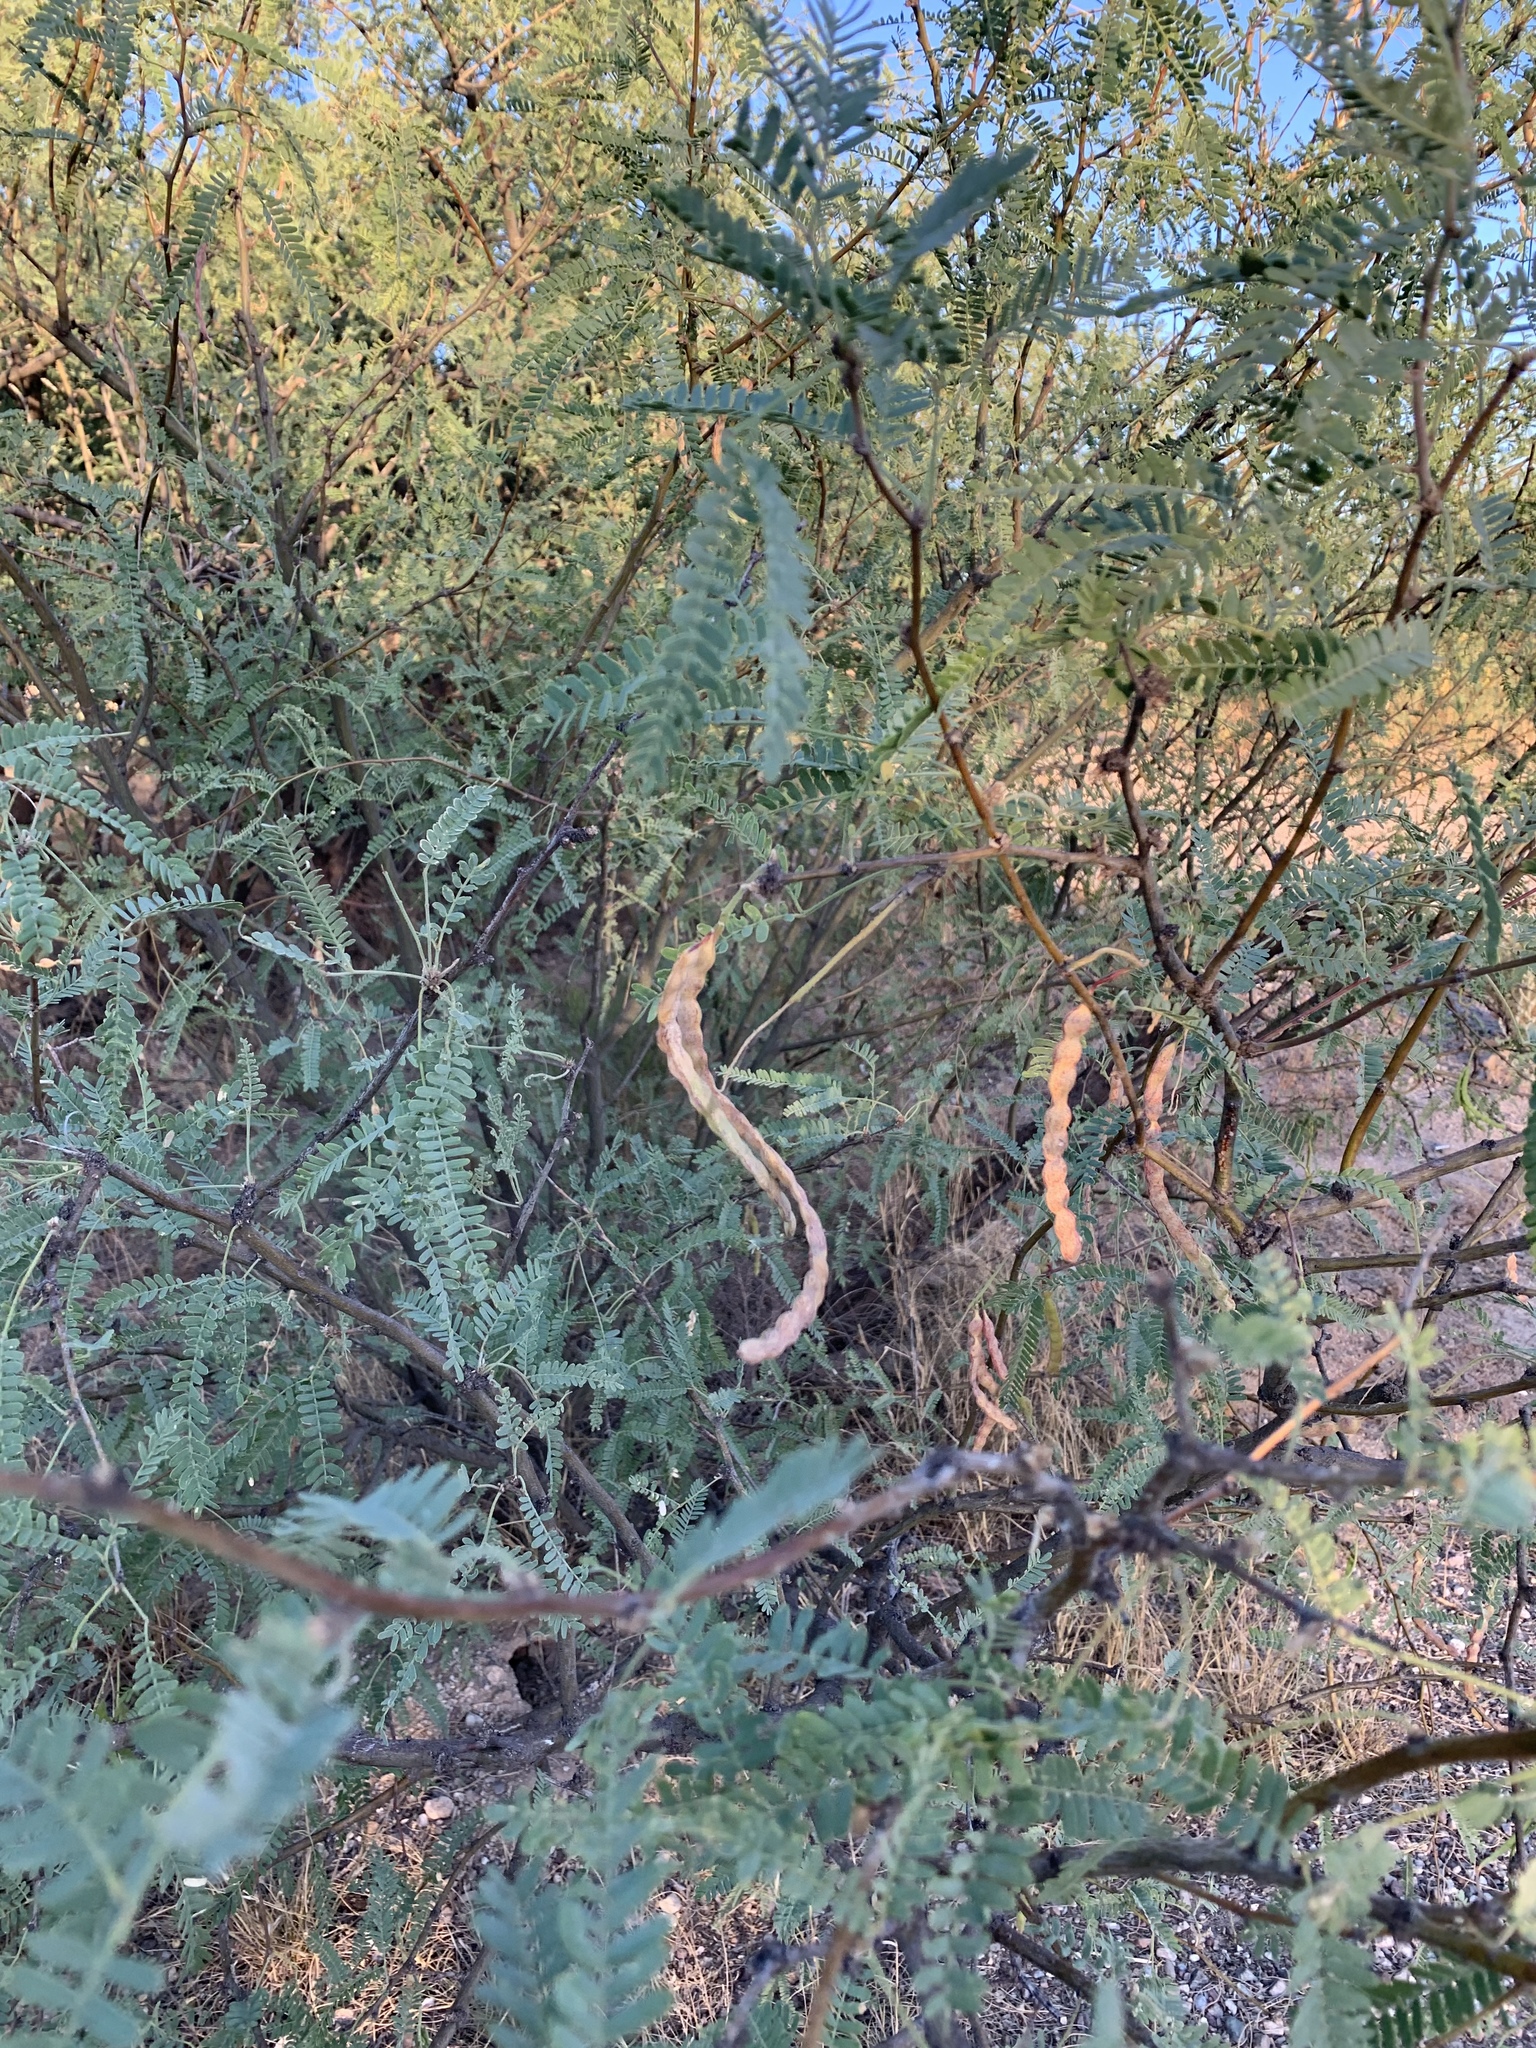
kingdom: Plantae
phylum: Tracheophyta
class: Magnoliopsida
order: Fabales
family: Fabaceae
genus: Prosopis
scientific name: Prosopis velutina
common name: Velvet mesquite
